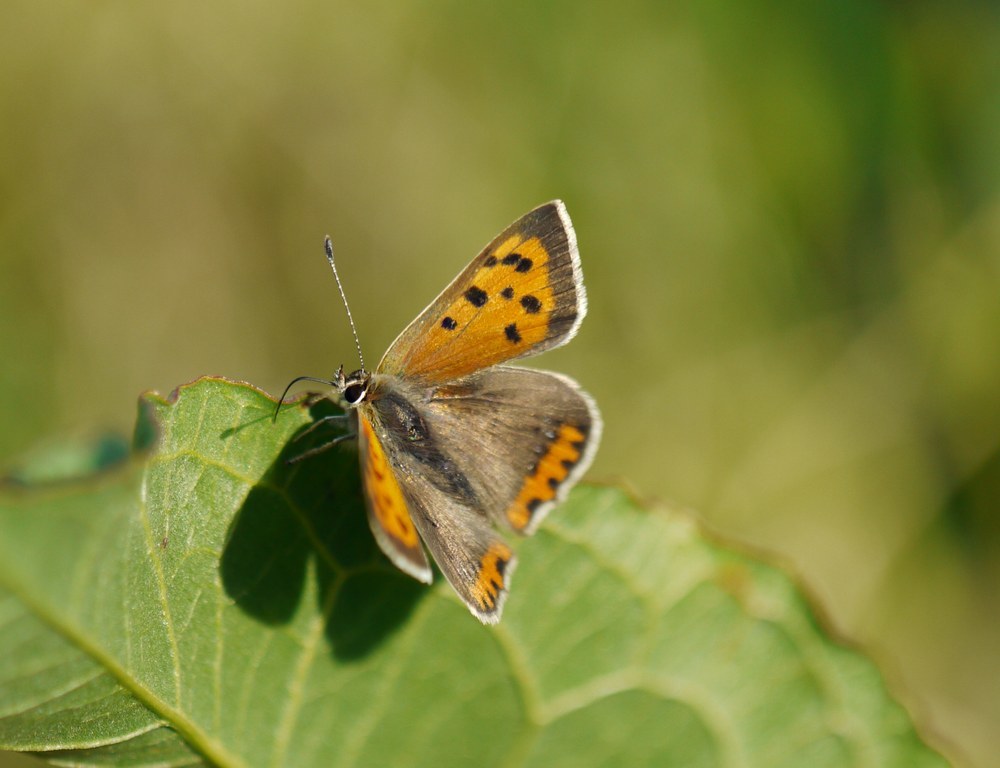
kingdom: Animalia
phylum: Arthropoda
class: Insecta
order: Lepidoptera
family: Lycaenidae
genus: Lycaena
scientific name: Lycaena phlaeas
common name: Small copper
